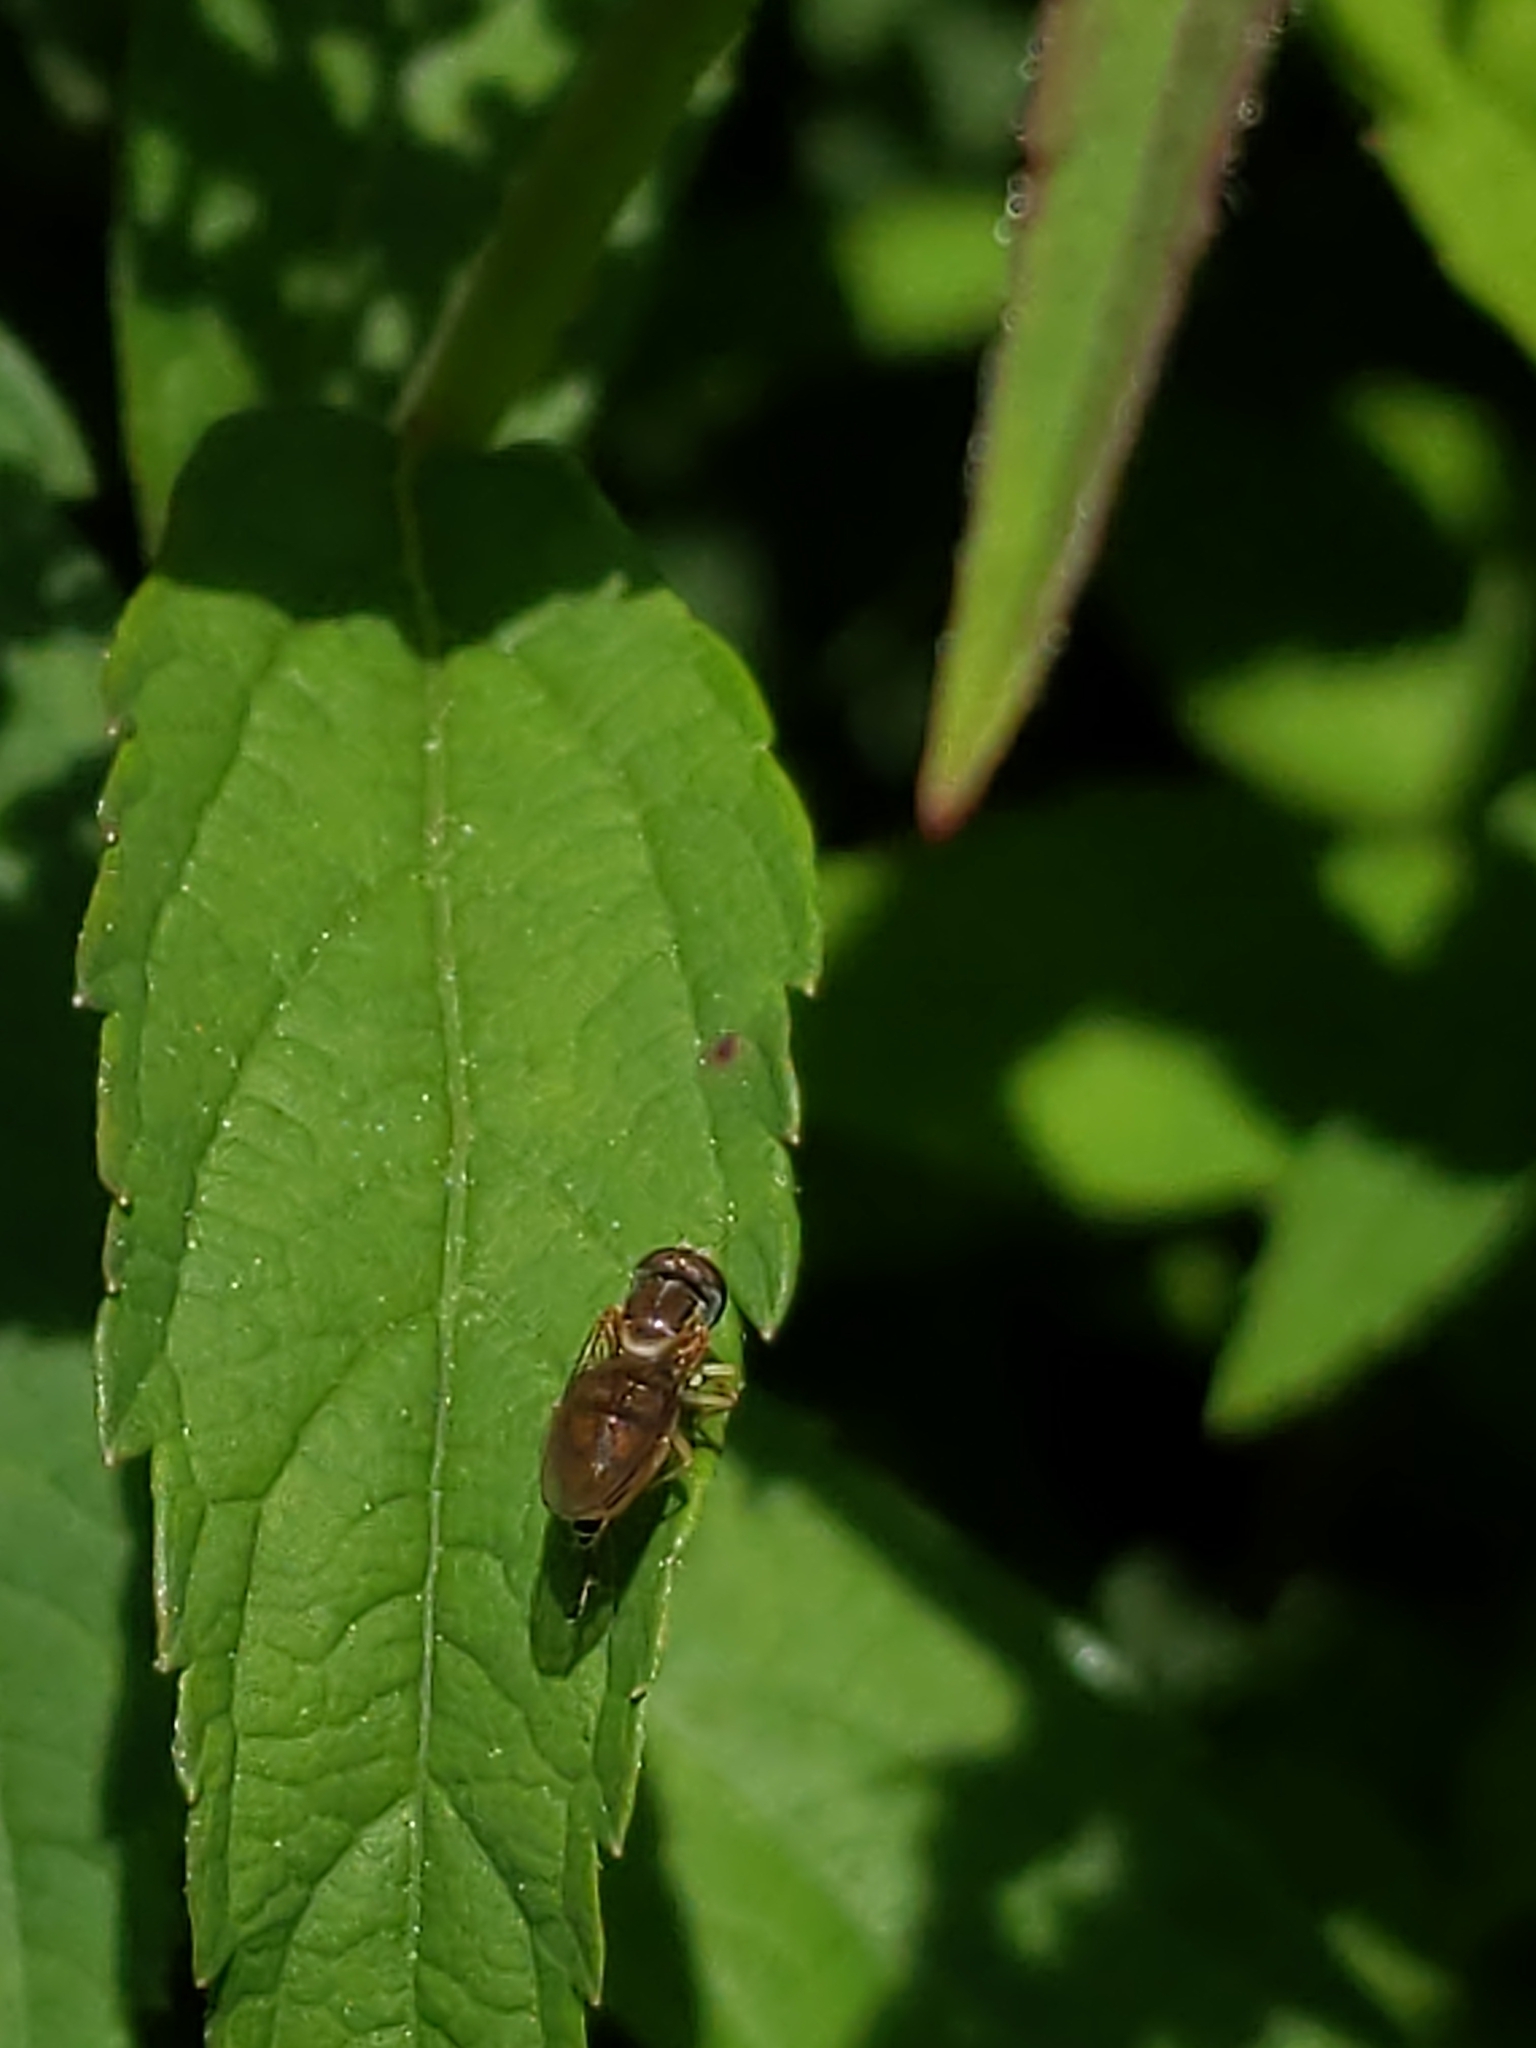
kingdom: Animalia
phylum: Arthropoda
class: Insecta
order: Diptera
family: Syrphidae
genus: Toxomerus
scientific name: Toxomerus marginatus
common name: Syrphid fly
